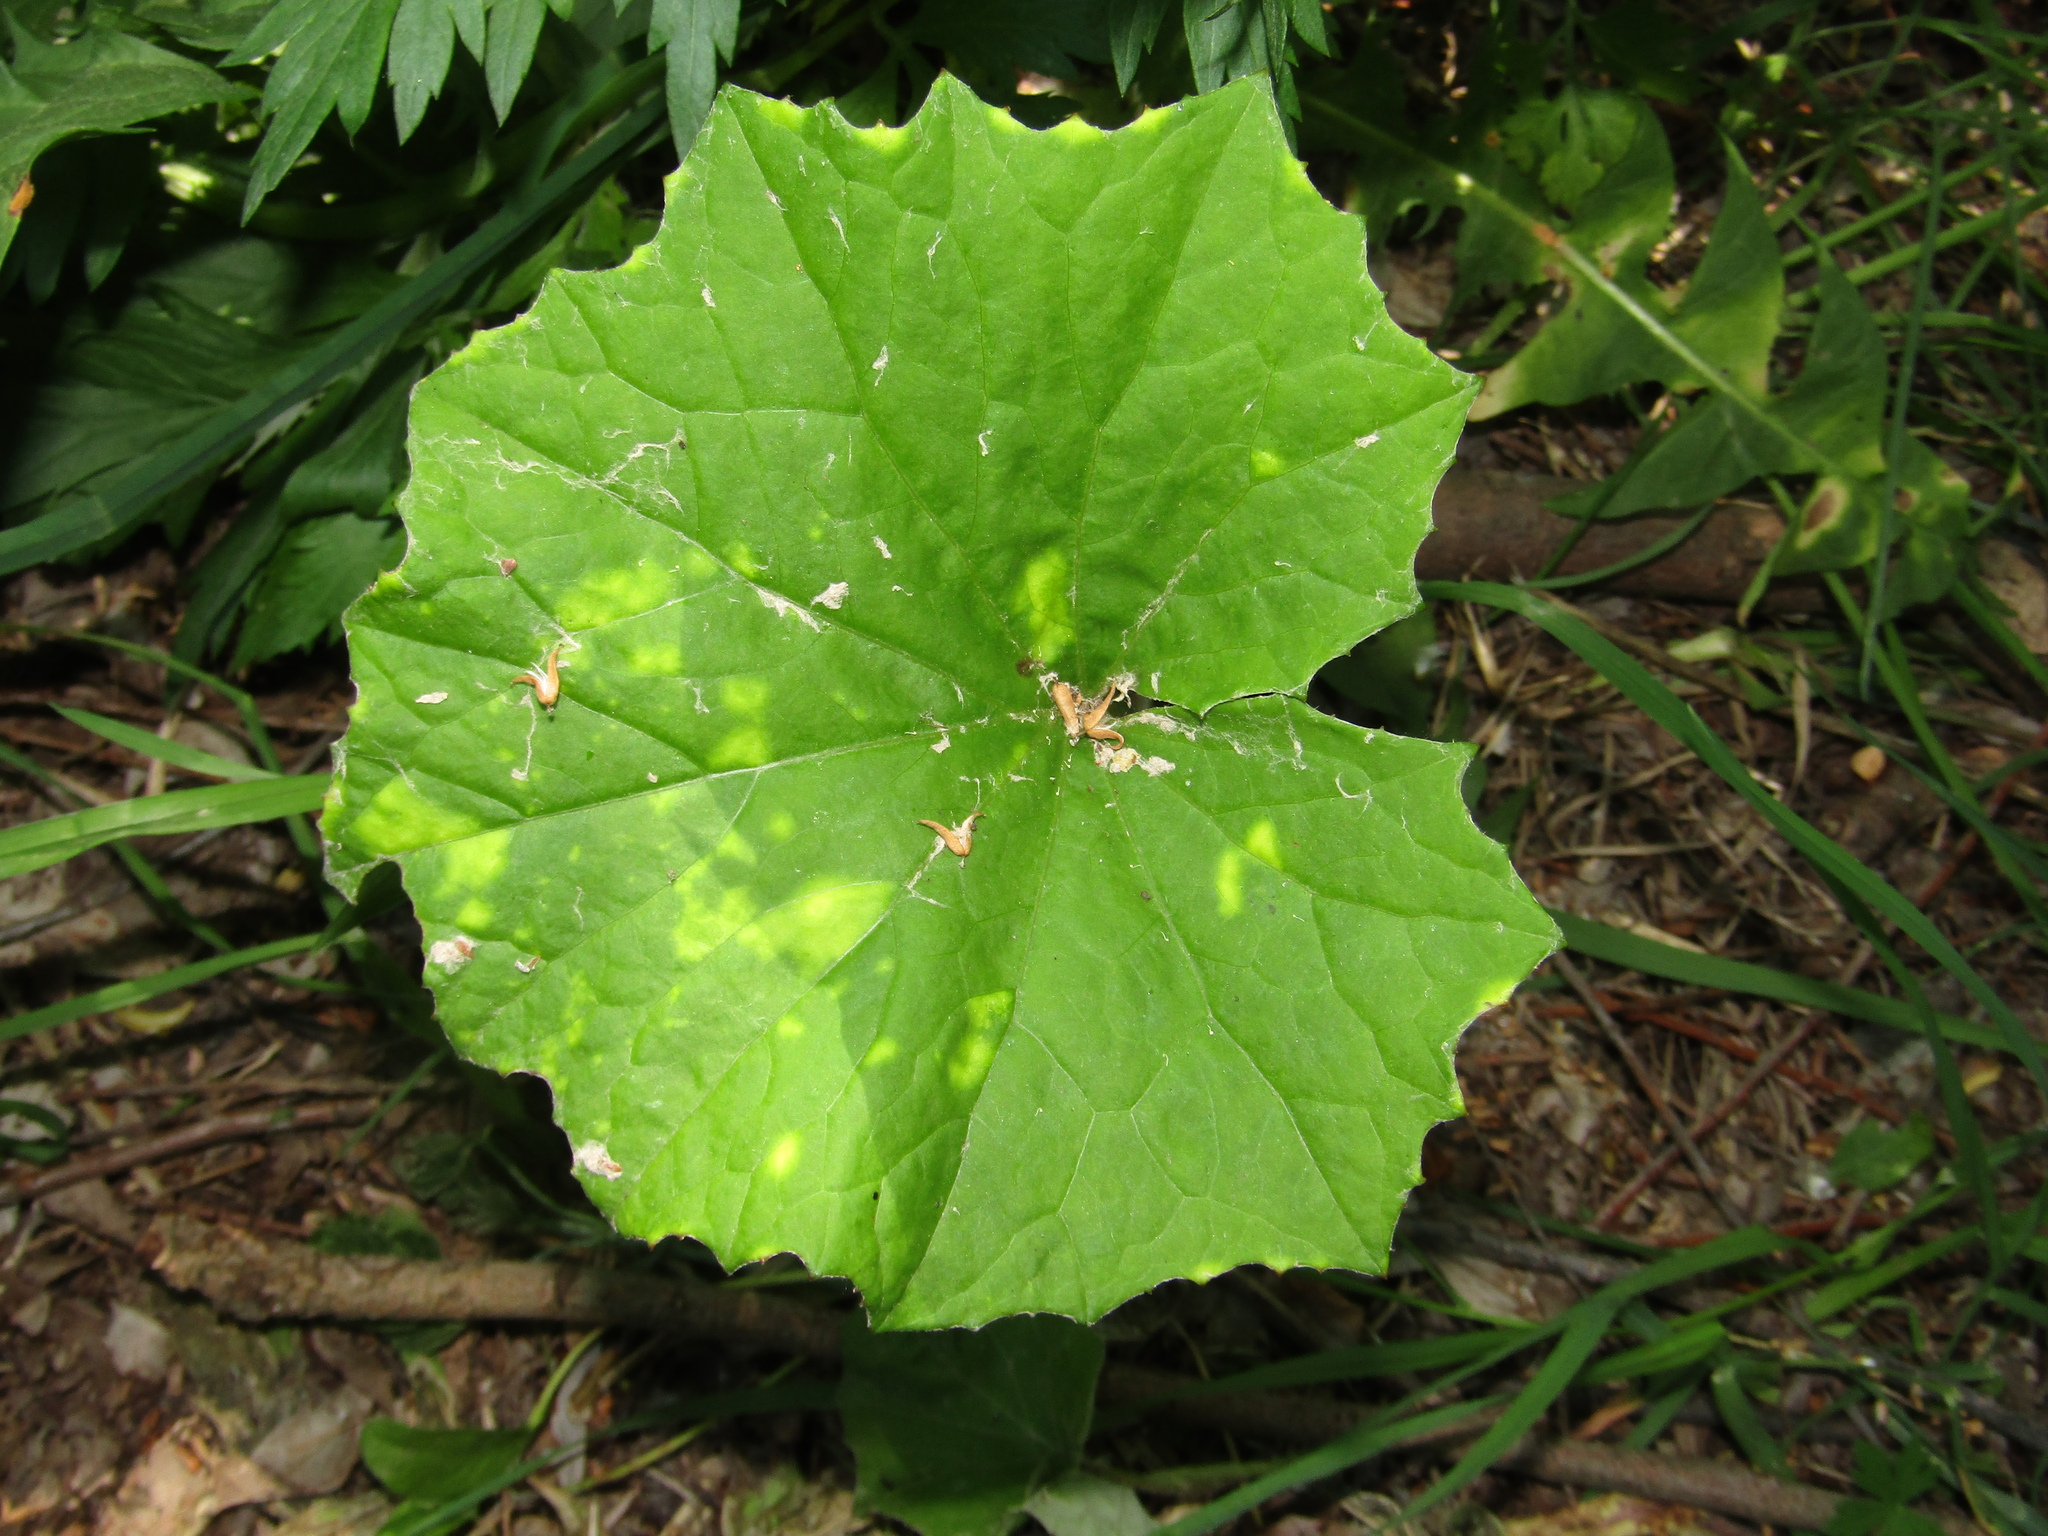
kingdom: Plantae
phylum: Tracheophyta
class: Magnoliopsida
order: Asterales
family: Asteraceae
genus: Tussilago
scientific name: Tussilago farfara
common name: Coltsfoot
